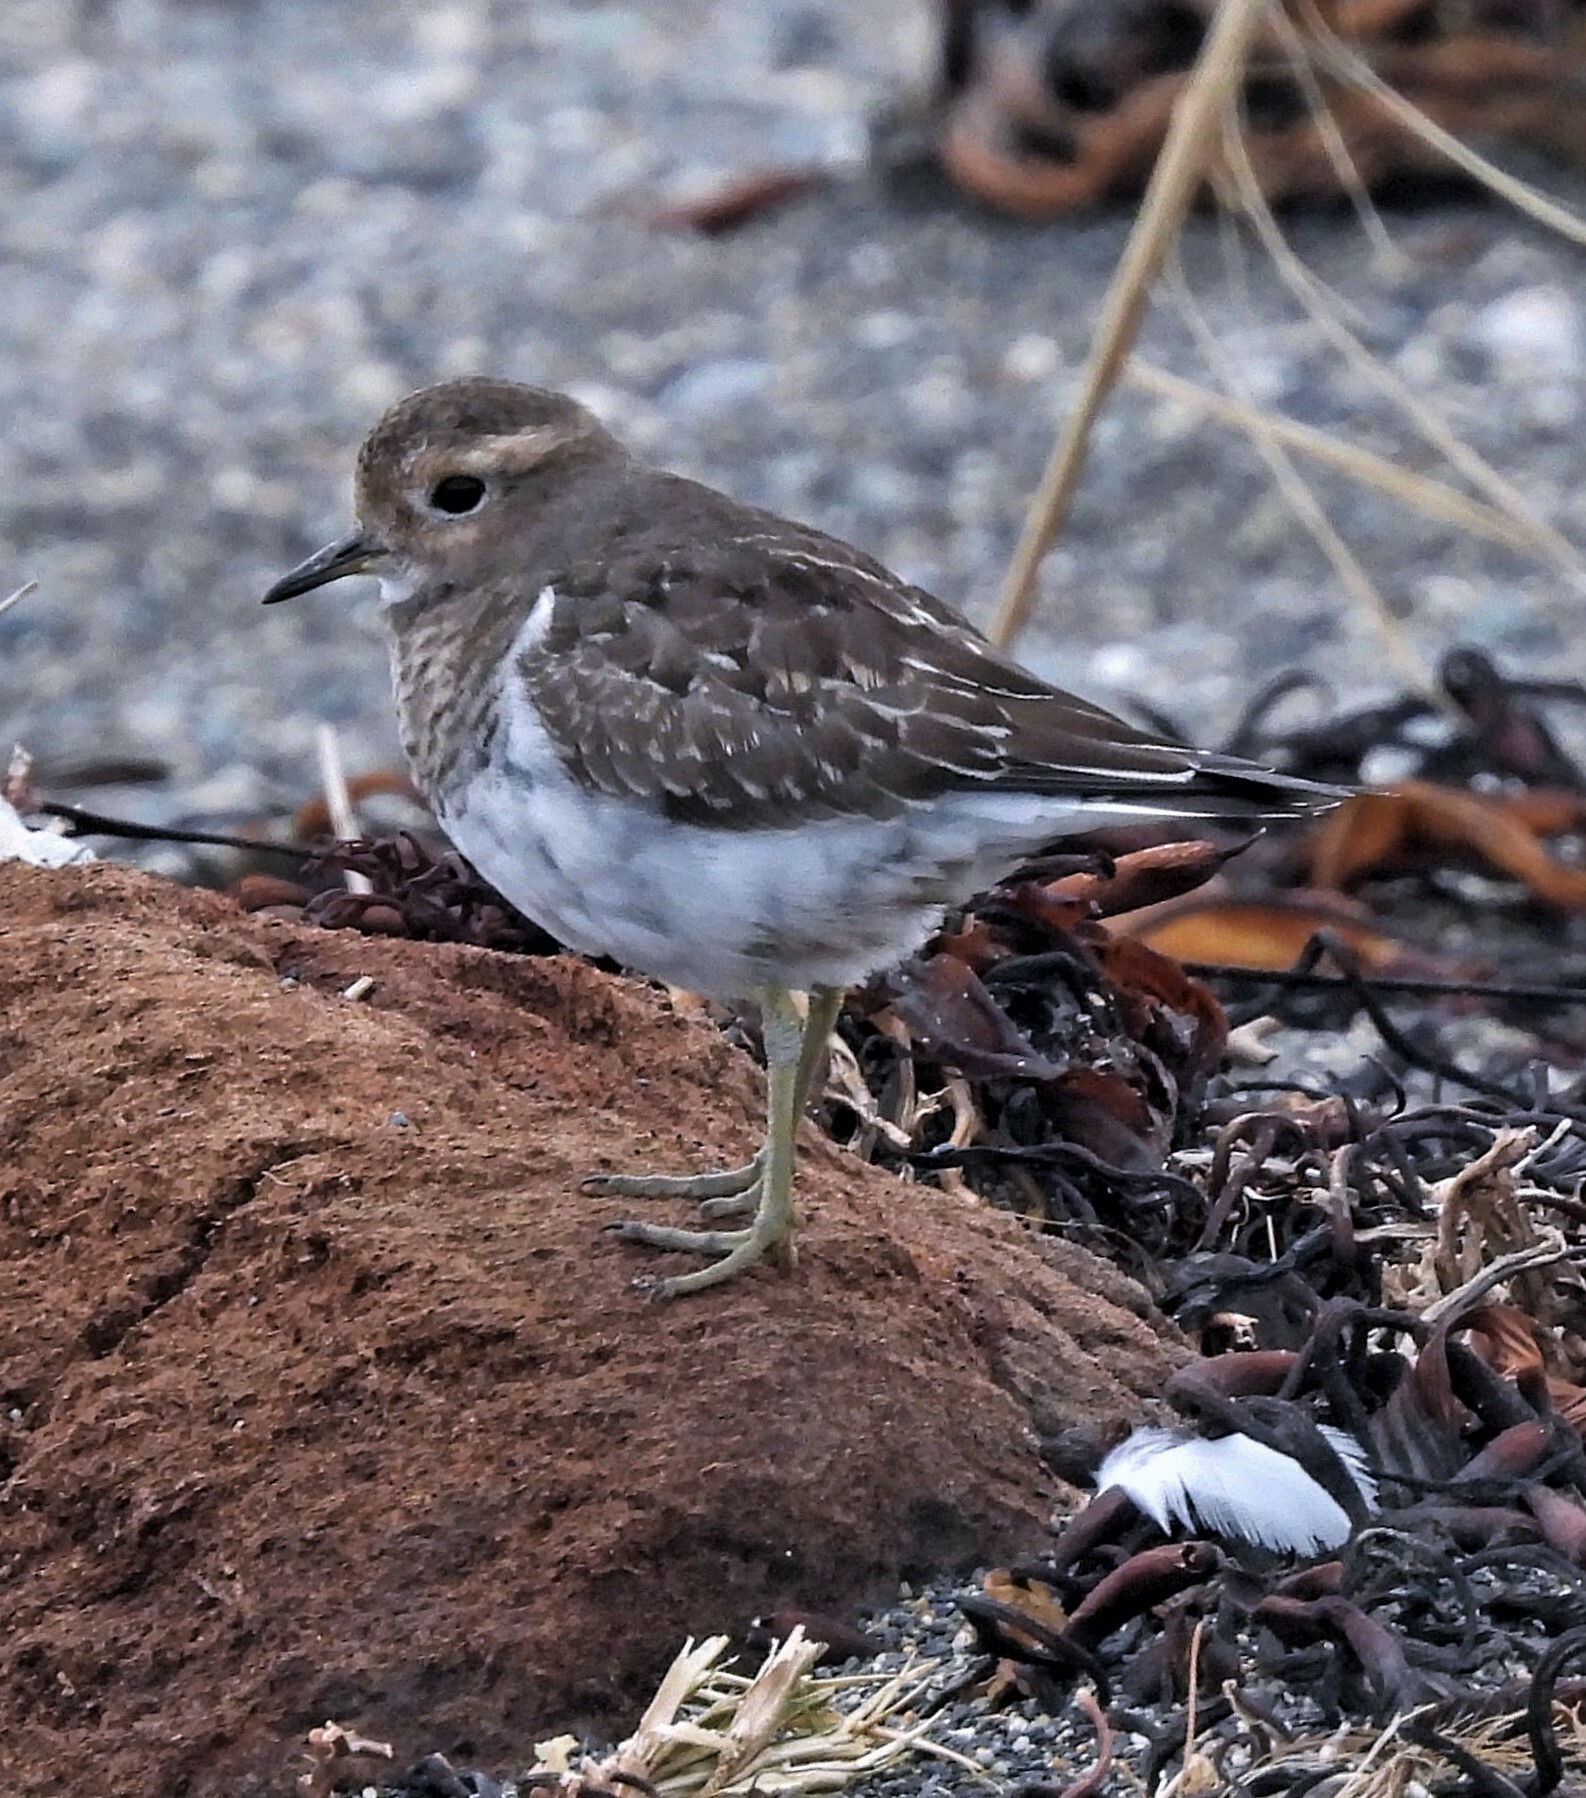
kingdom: Animalia
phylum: Chordata
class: Aves
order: Charadriiformes
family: Charadriidae
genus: Charadrius
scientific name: Charadrius modestus
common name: Rufous-chested plover
